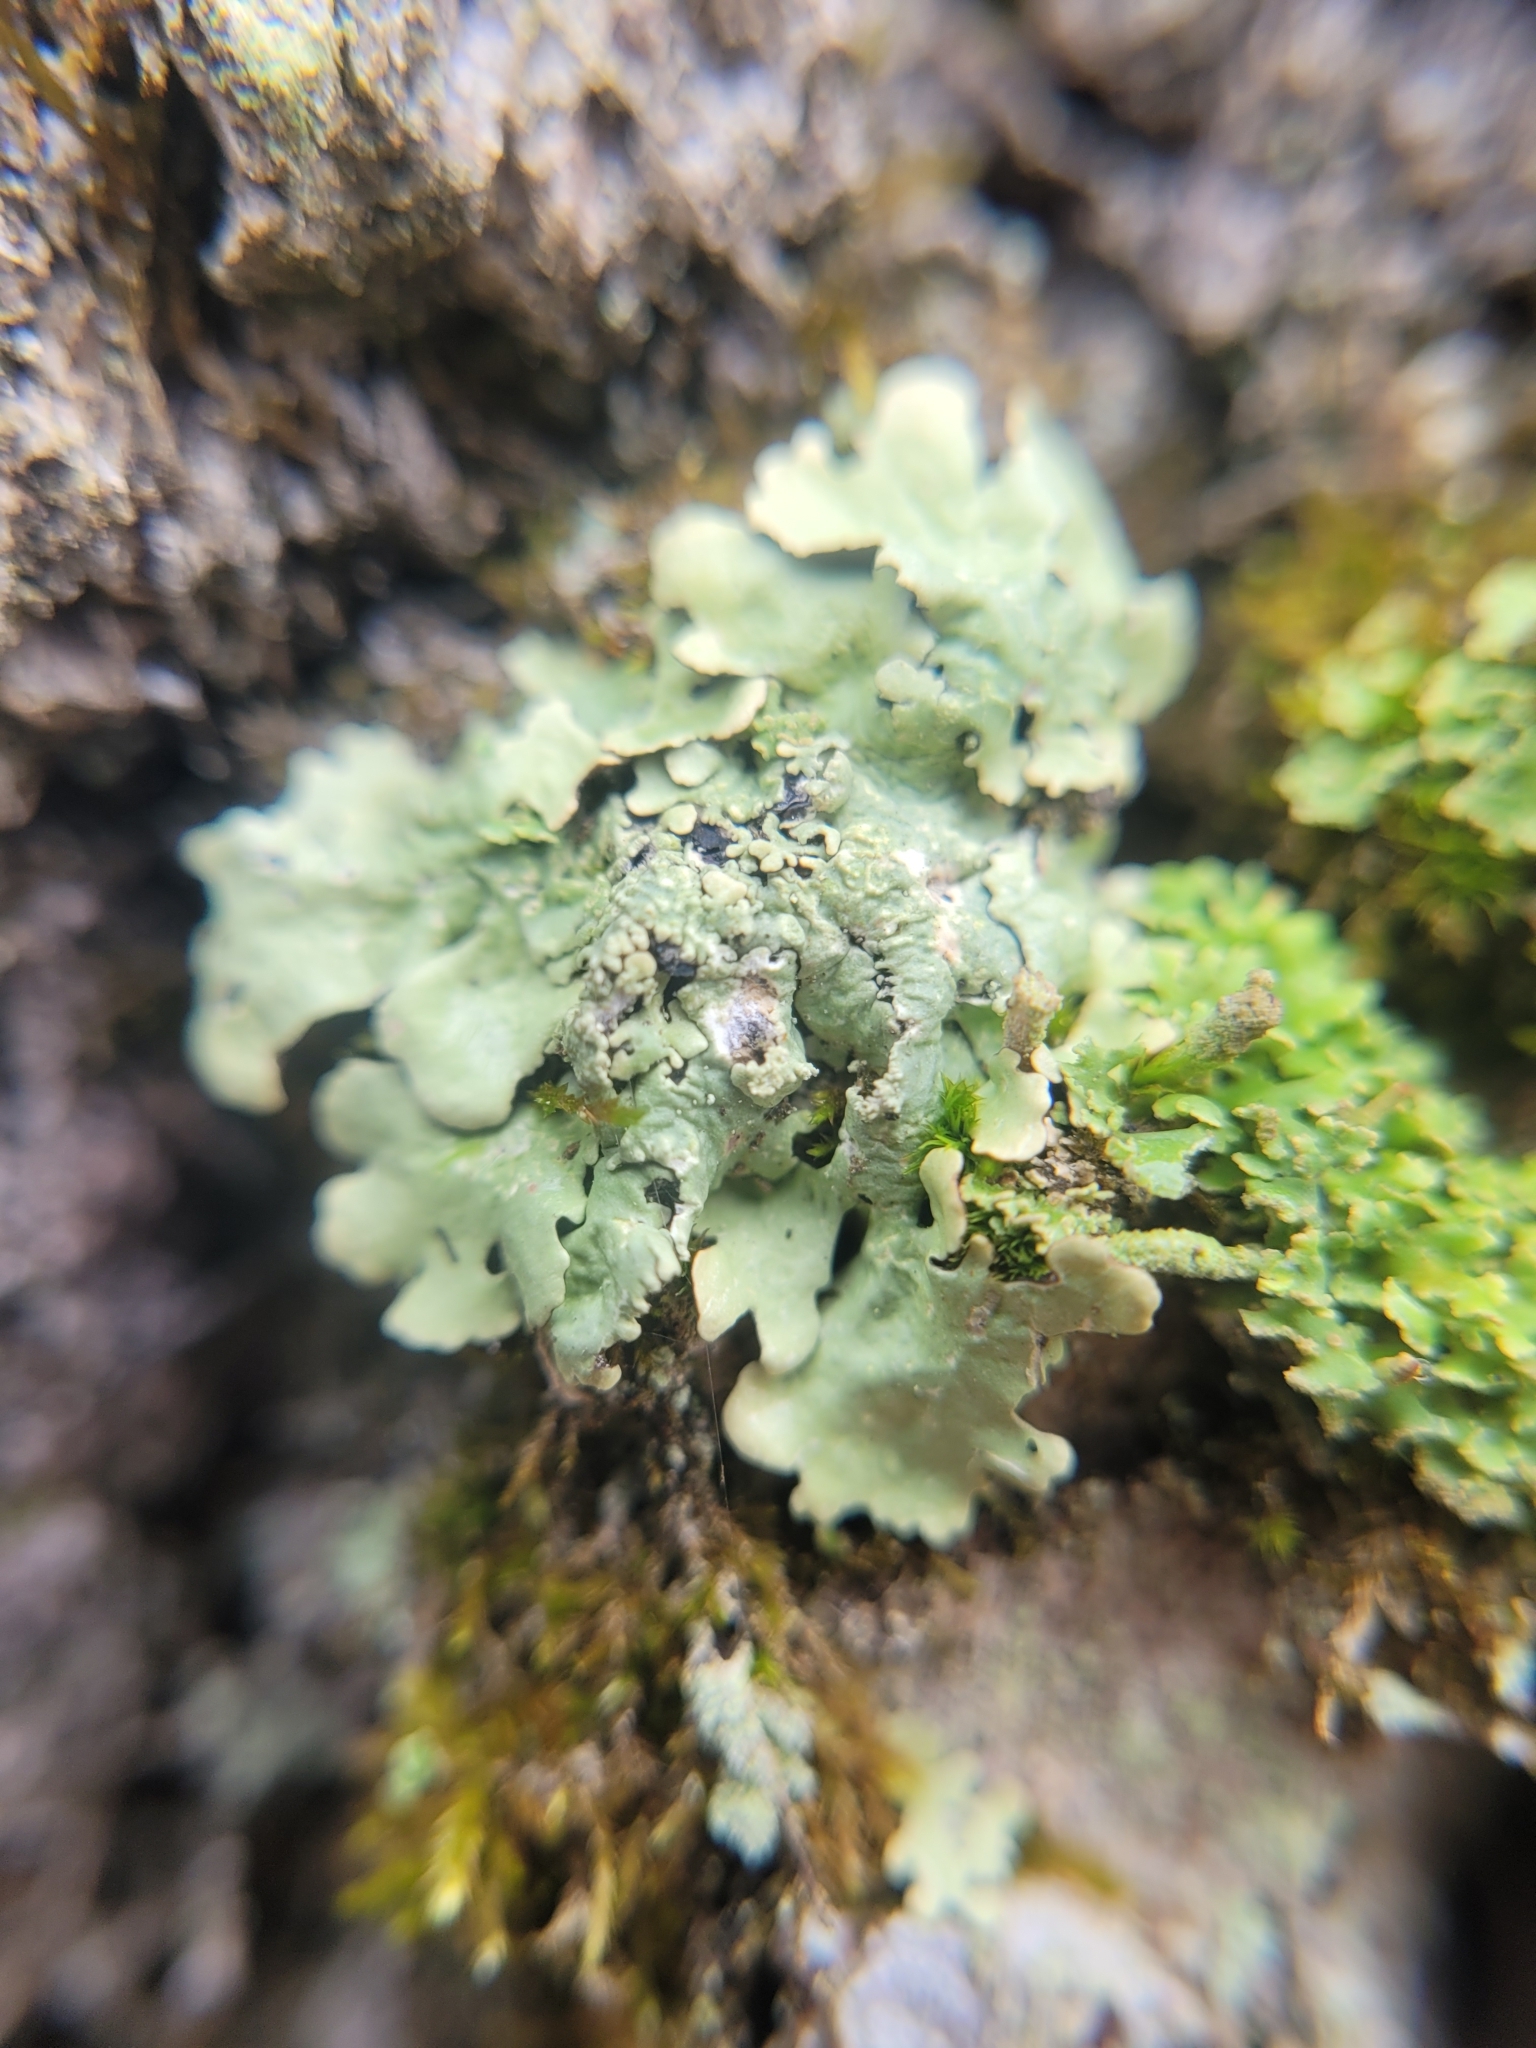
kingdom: Fungi
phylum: Ascomycota
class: Lecanoromycetes
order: Lecanorales
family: Parmeliaceae
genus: Flavoparmelia
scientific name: Flavoparmelia caperata
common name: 40-mile per hour lichen
